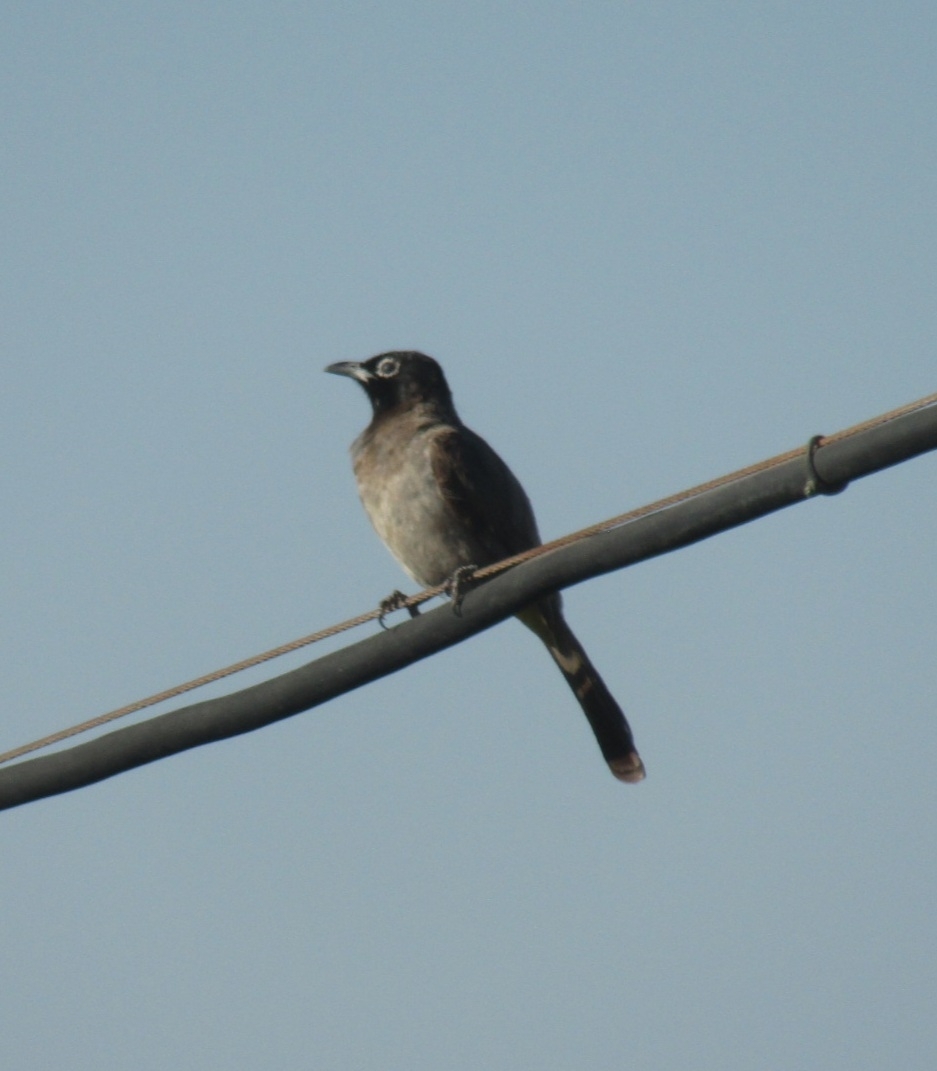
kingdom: Animalia
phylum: Chordata
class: Aves
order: Passeriformes
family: Pycnonotidae
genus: Pycnonotus
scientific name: Pycnonotus xanthopygos
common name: White-spectacled bulbul
